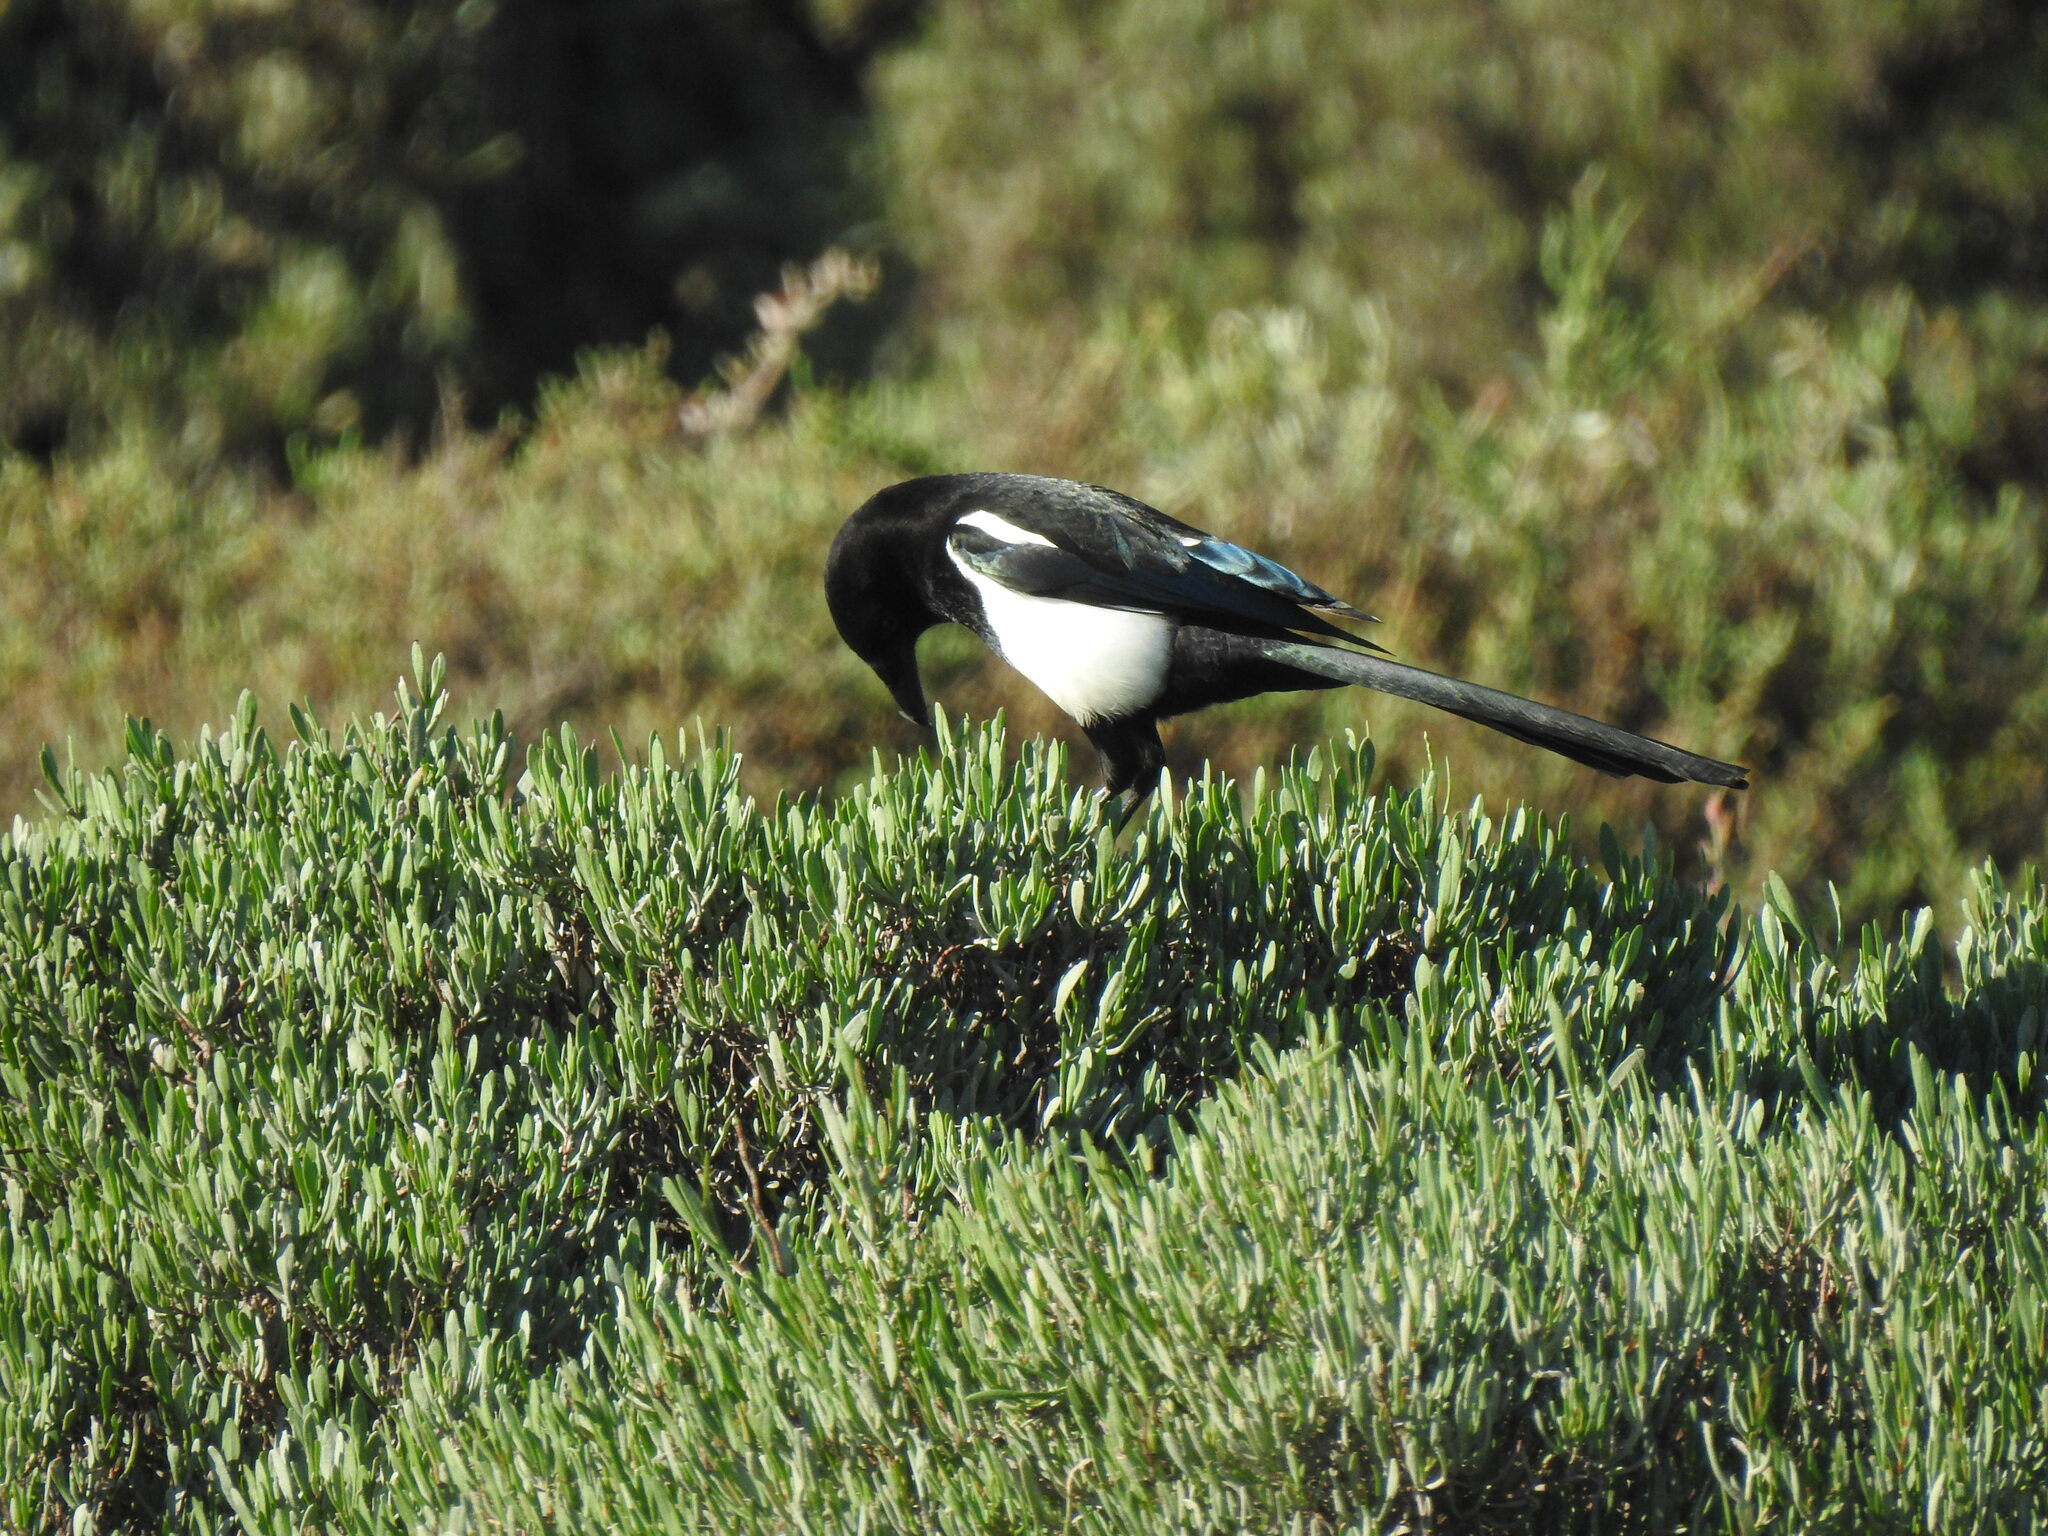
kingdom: Animalia
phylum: Chordata
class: Aves
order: Passeriformes
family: Corvidae
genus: Pica
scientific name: Pica pica
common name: Eurasian magpie
